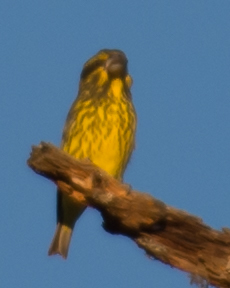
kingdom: Animalia
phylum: Chordata
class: Aves
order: Passeriformes
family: Fringillidae
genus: Mycerobas
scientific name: Mycerobas melanozanthos
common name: Spot-winged grosbeak
